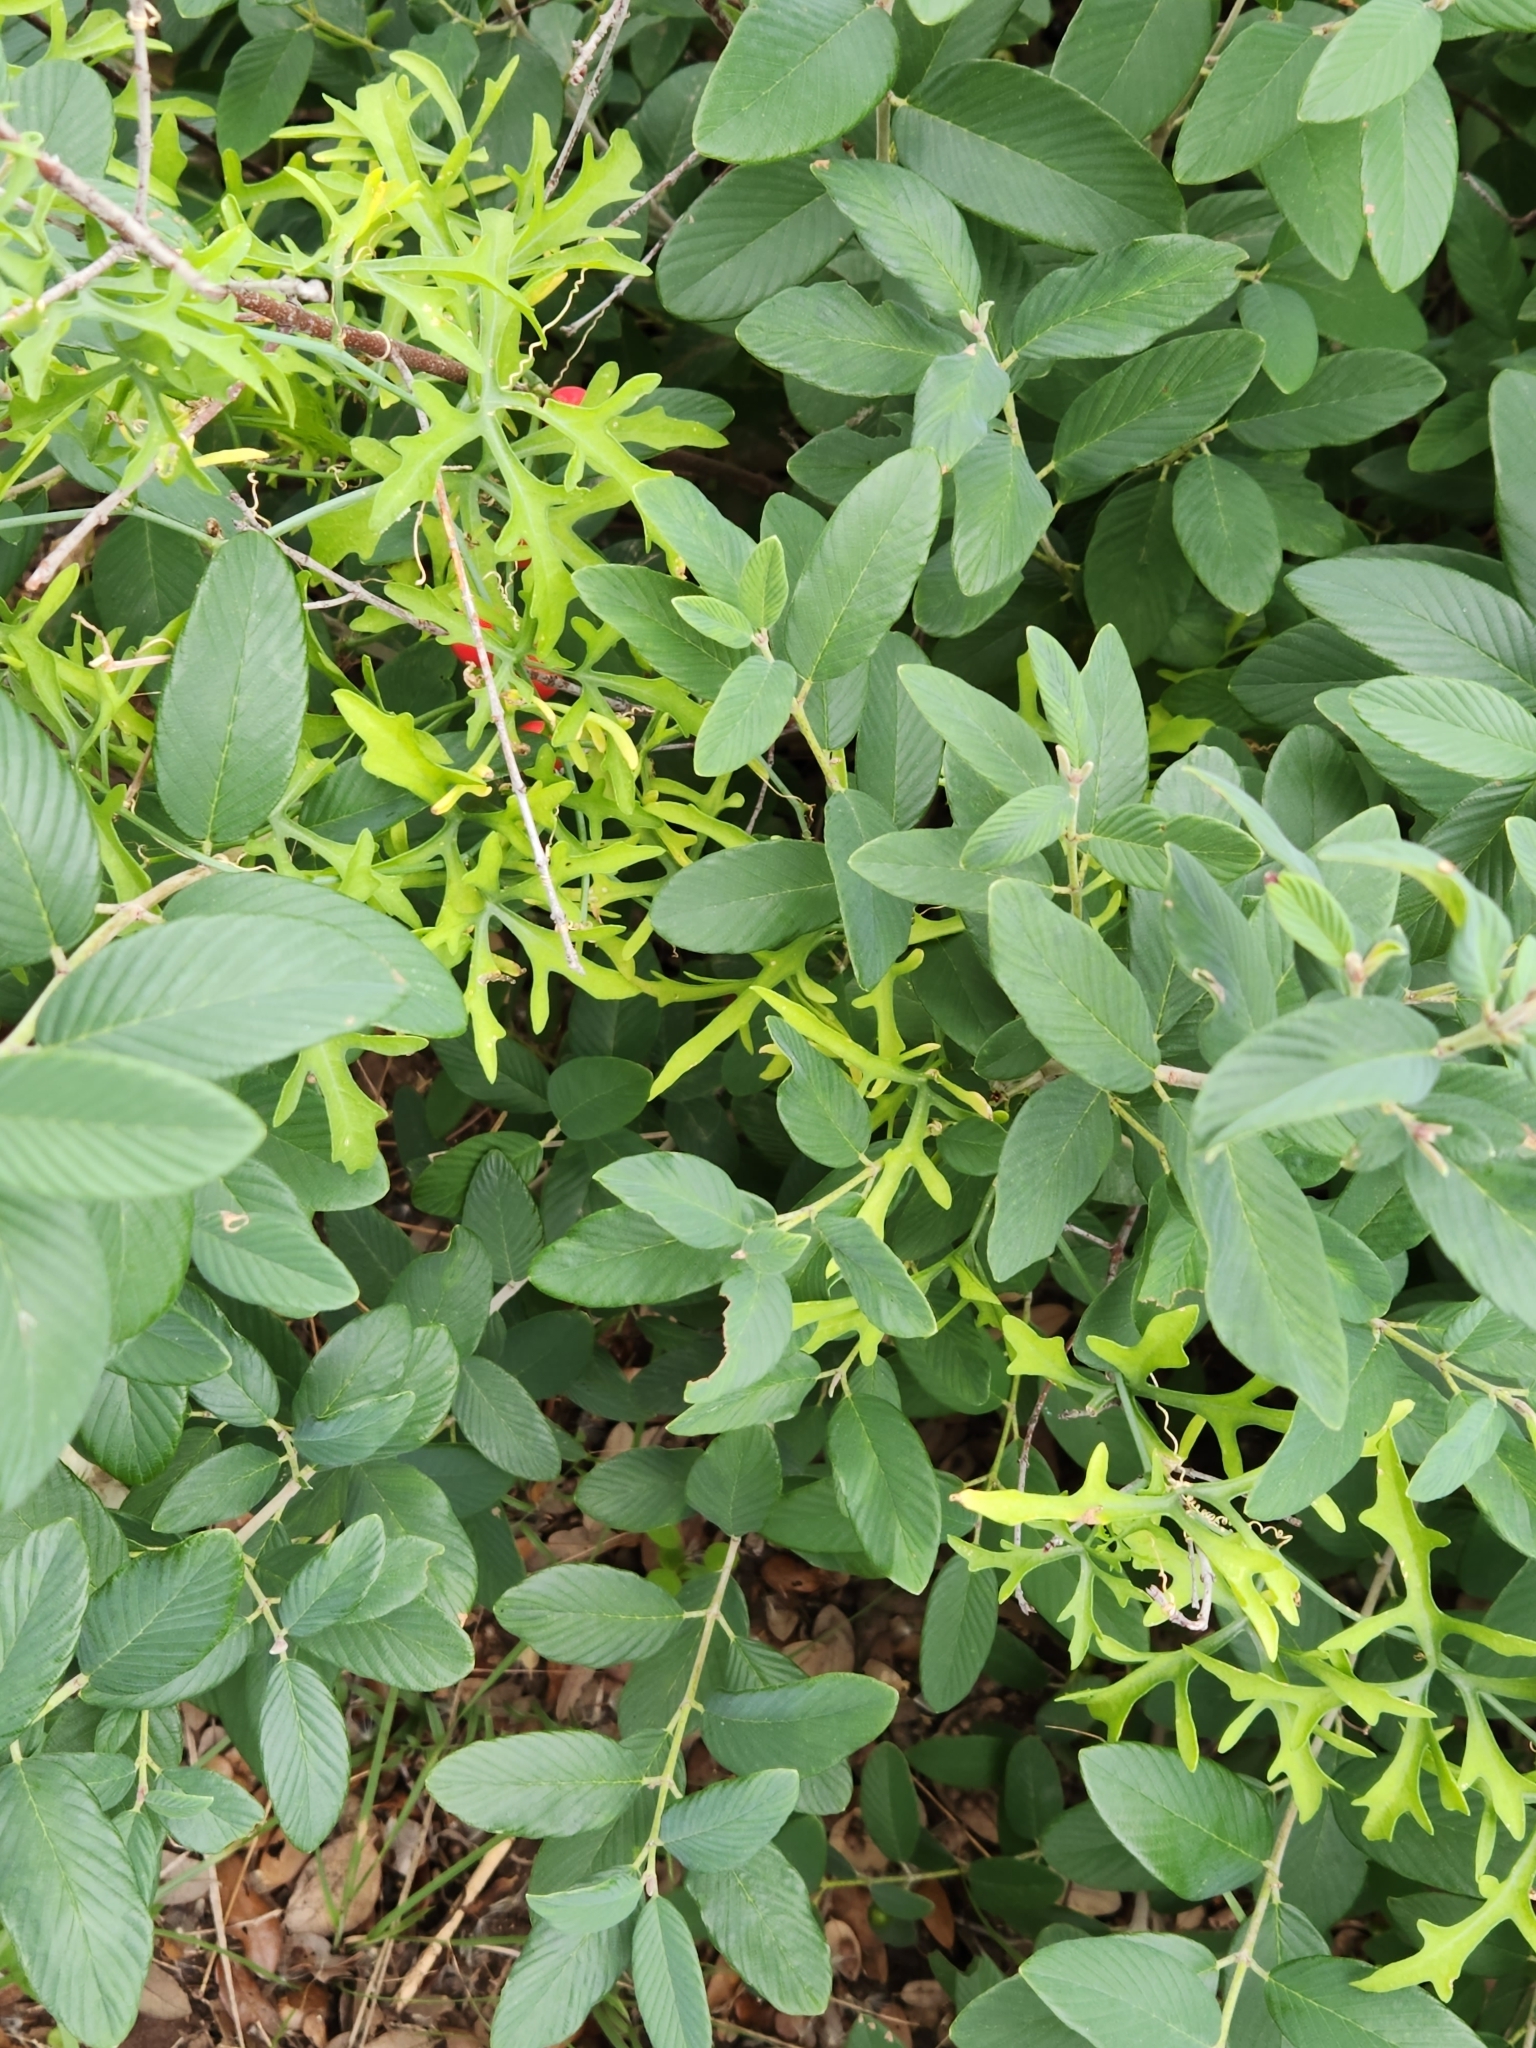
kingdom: Plantae
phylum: Tracheophyta
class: Magnoliopsida
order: Cucurbitales
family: Cucurbitaceae
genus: Ibervillea
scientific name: Ibervillea lindheimeri
